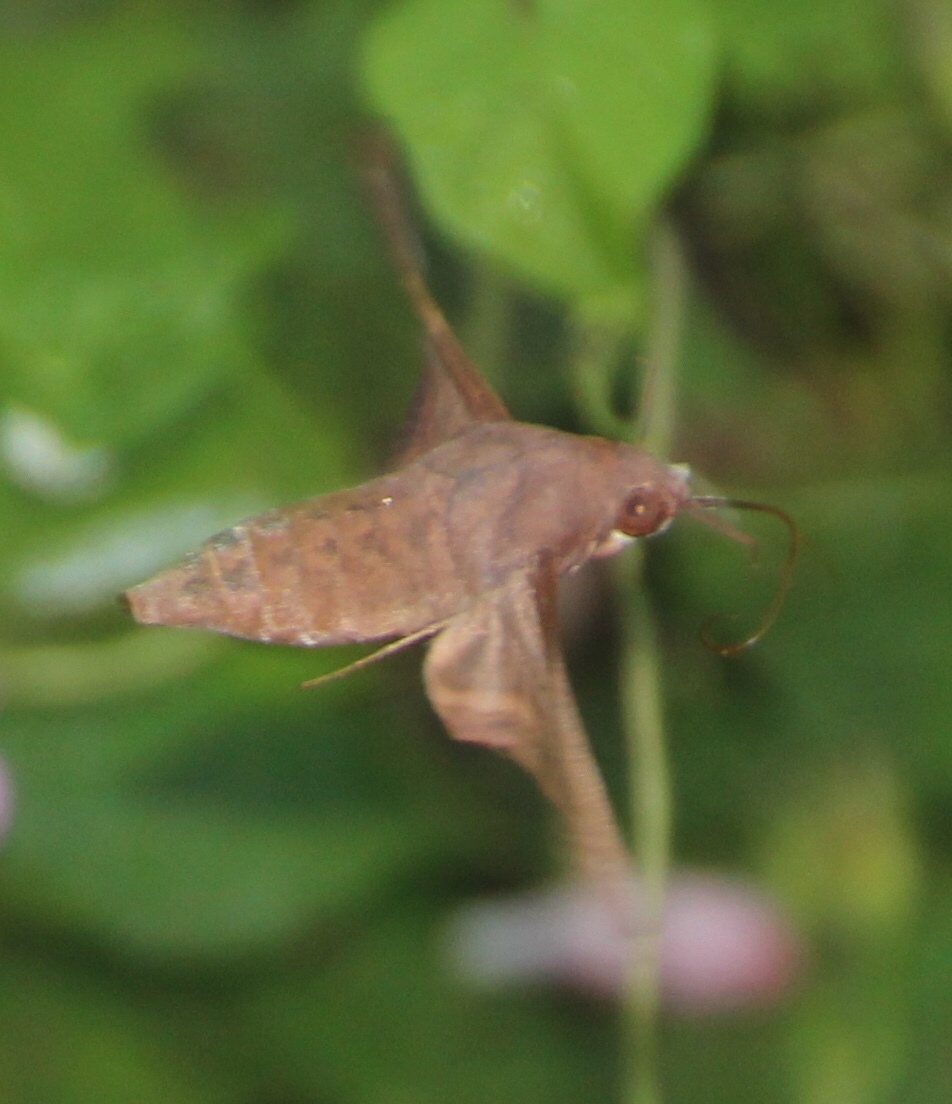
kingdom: Animalia
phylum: Arthropoda
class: Insecta
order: Lepidoptera
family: Sphingidae
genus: Enyo
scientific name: Enyo lugubris
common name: Mournful sphinx
